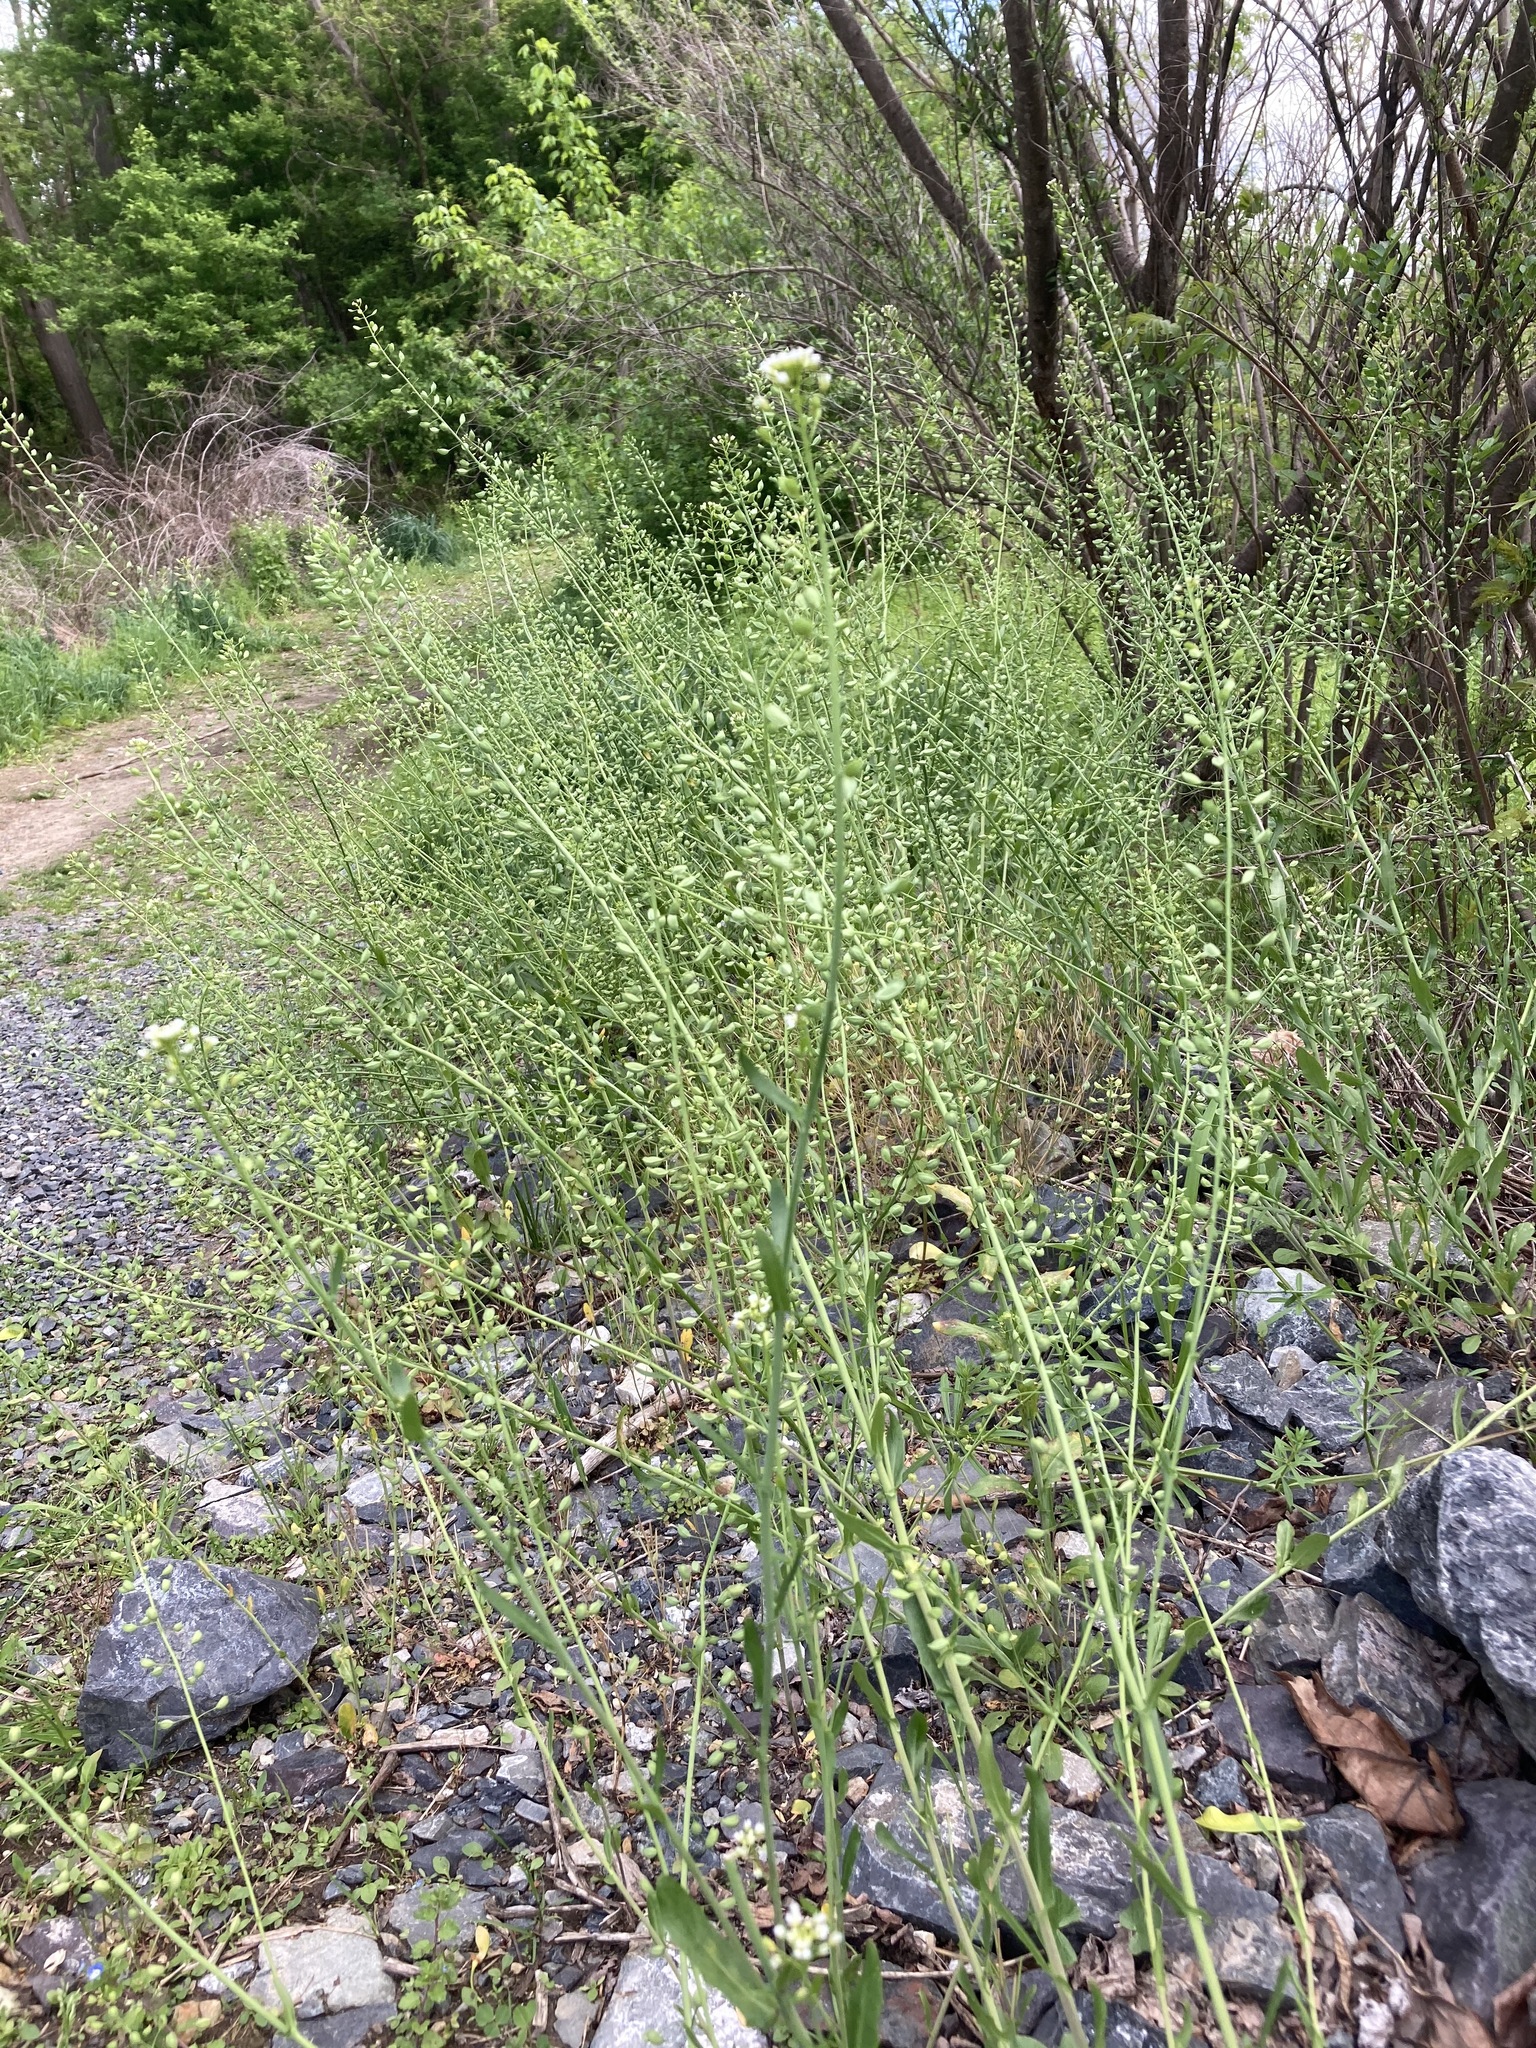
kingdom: Plantae
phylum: Tracheophyta
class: Magnoliopsida
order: Brassicales
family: Brassicaceae
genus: Mummenhoffia
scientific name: Mummenhoffia alliacea
